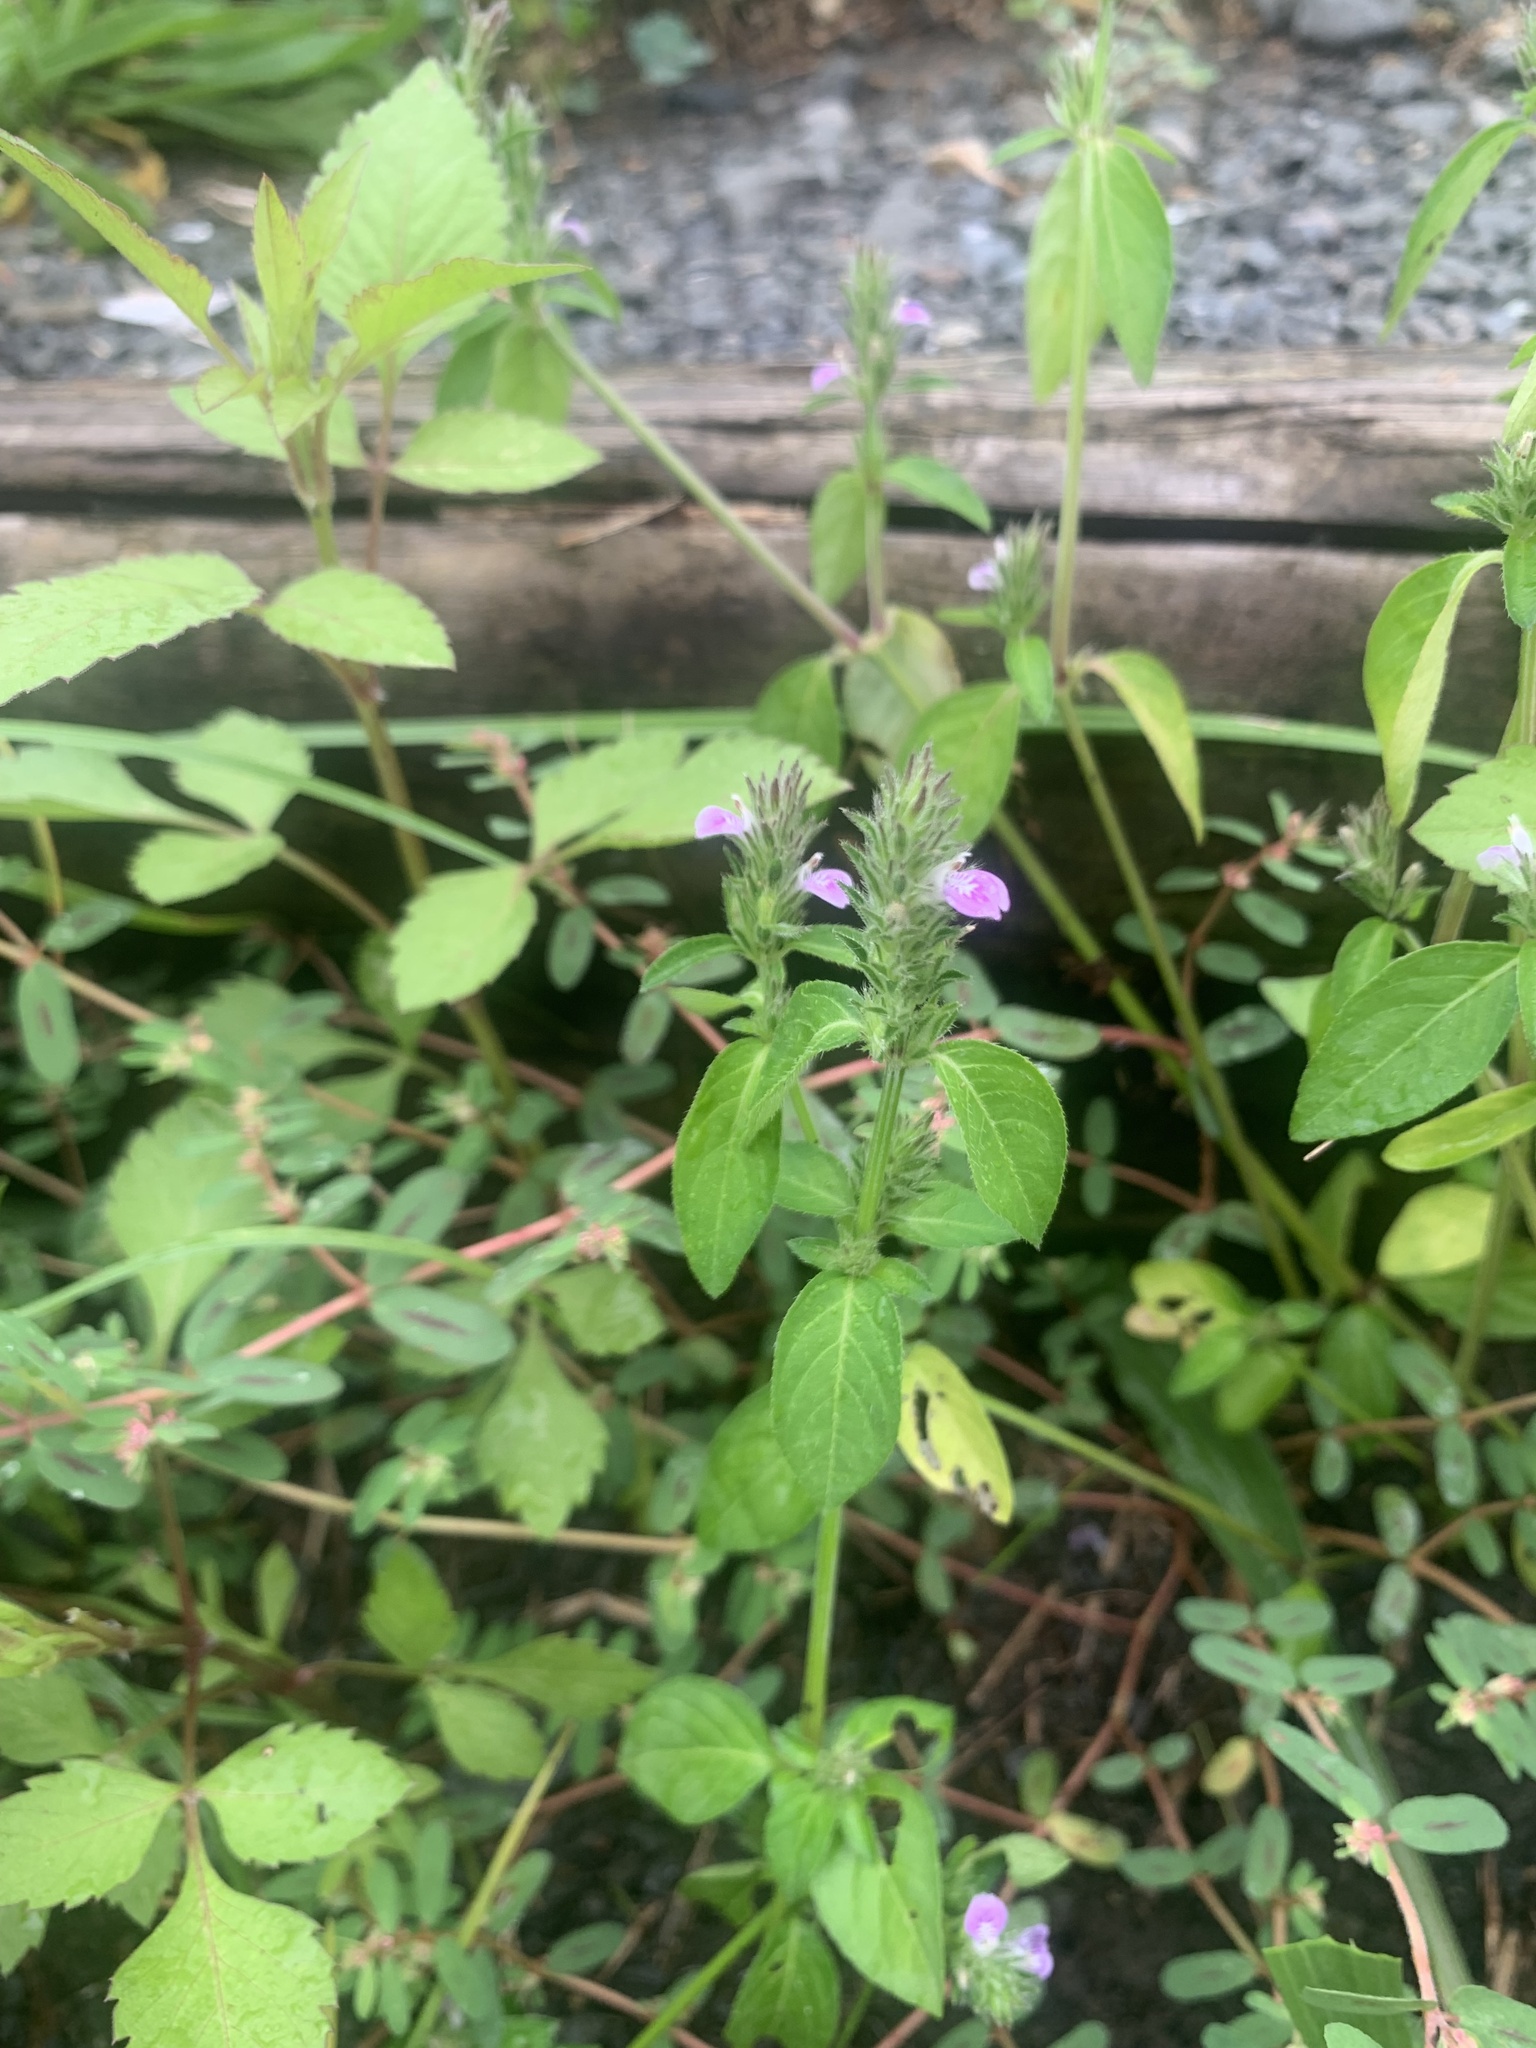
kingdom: Plantae
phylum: Tracheophyta
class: Magnoliopsida
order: Lamiales
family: Acanthaceae
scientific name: Acanthaceae
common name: Acanthaceae
